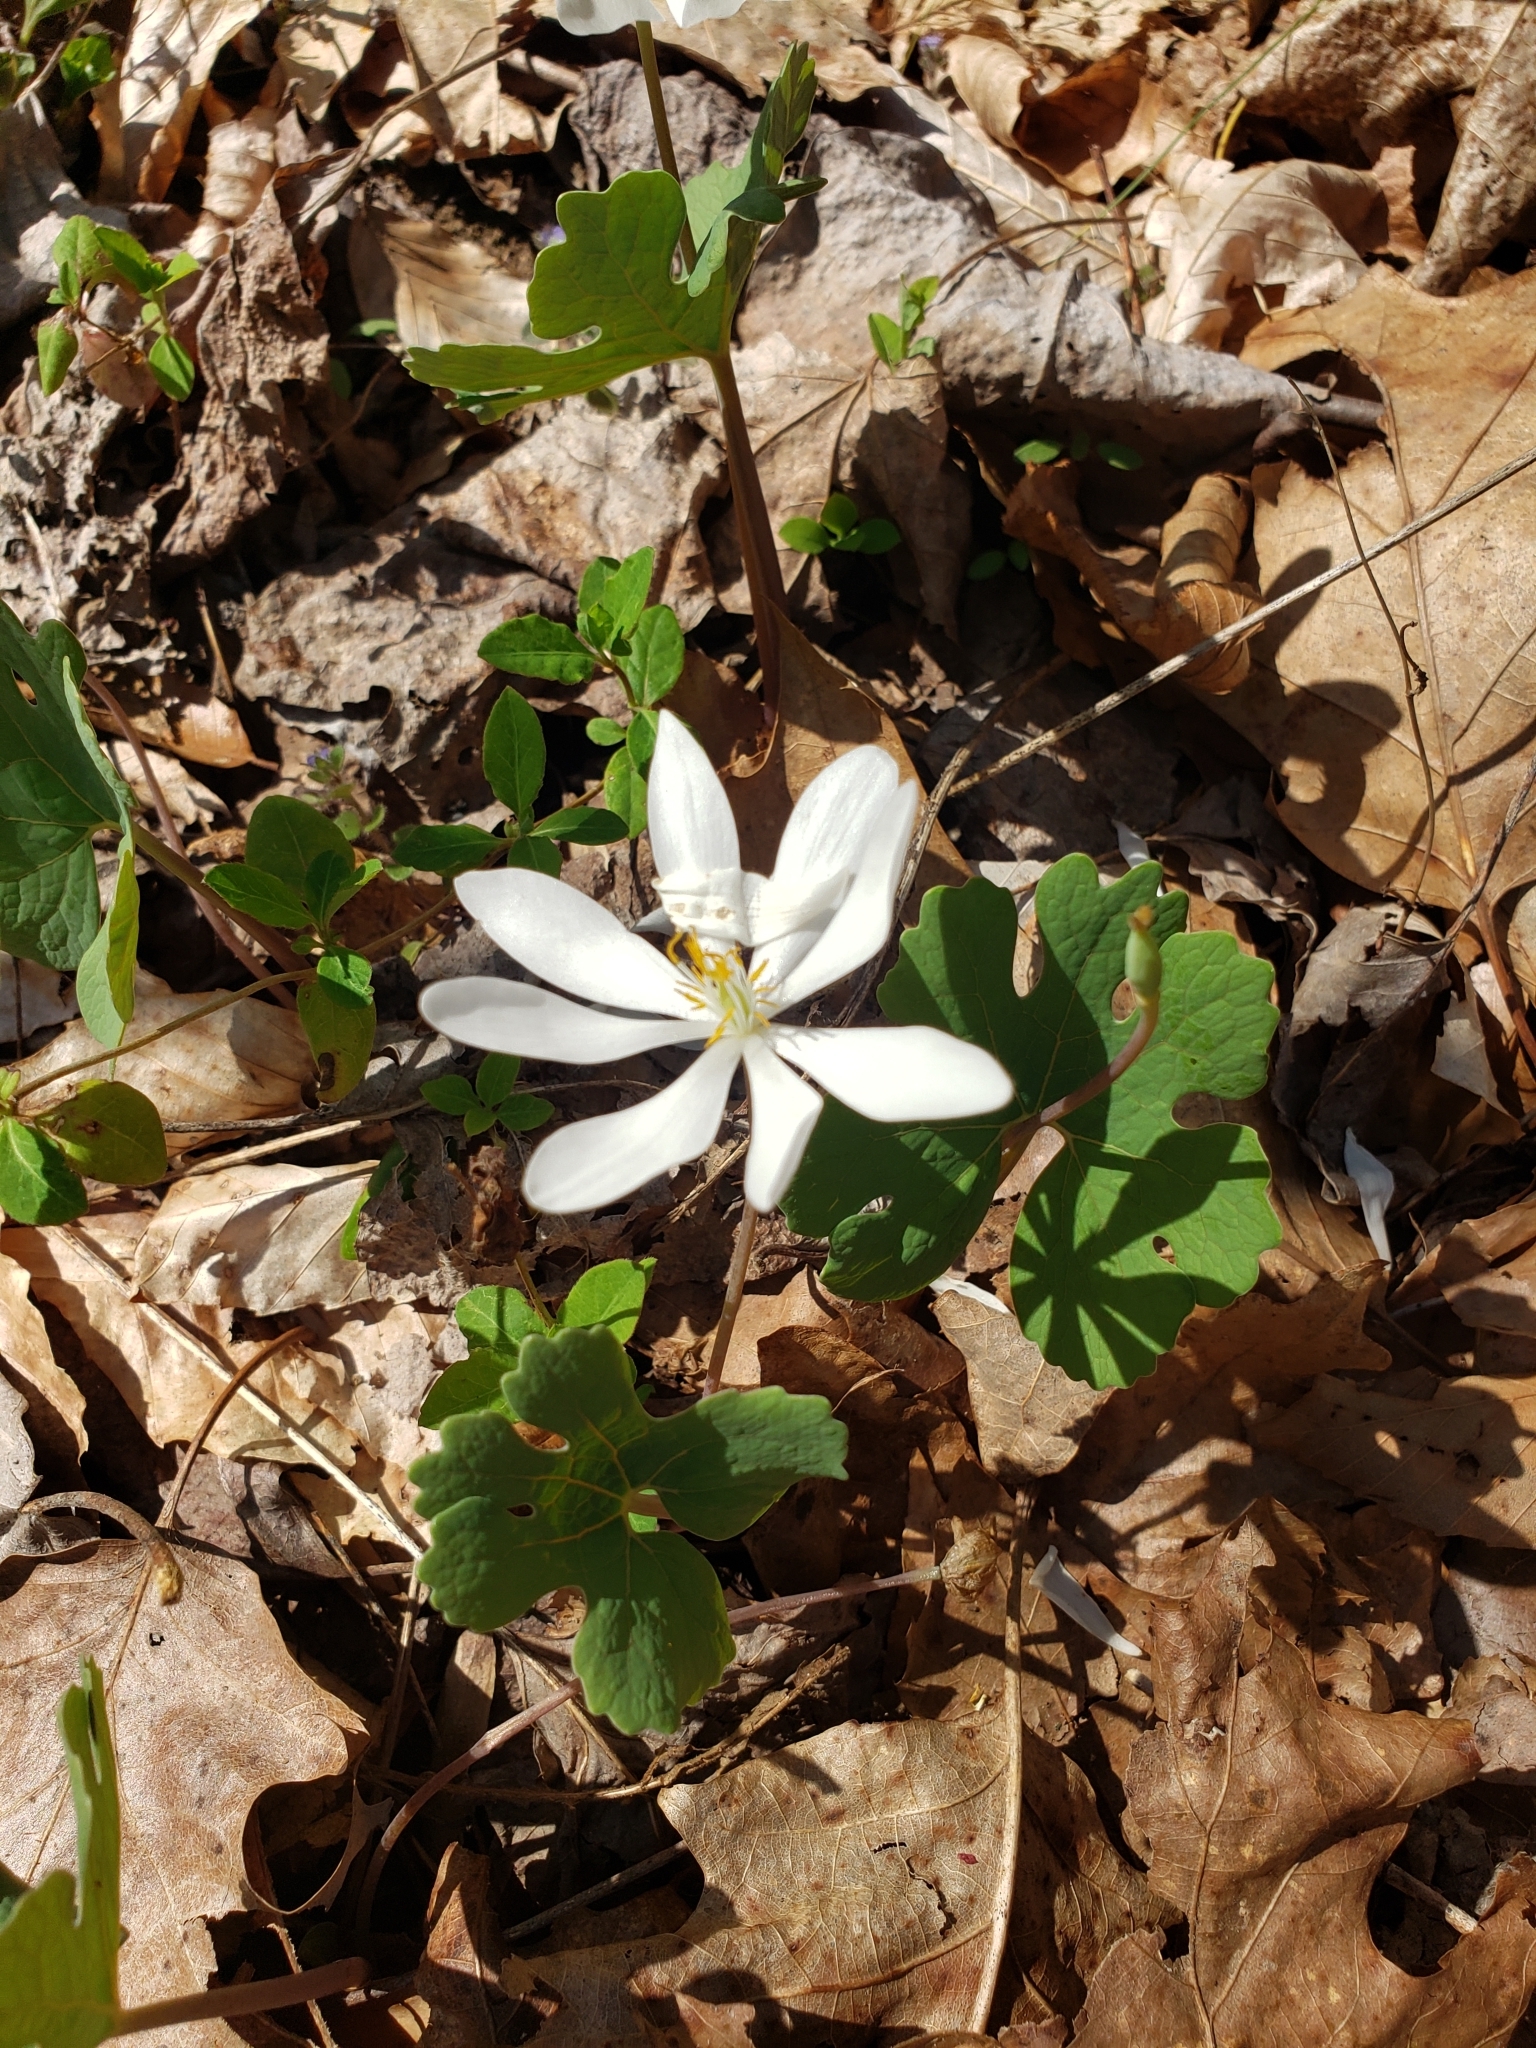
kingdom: Plantae
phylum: Tracheophyta
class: Magnoliopsida
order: Ranunculales
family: Papaveraceae
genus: Sanguinaria
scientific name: Sanguinaria canadensis
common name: Bloodroot
